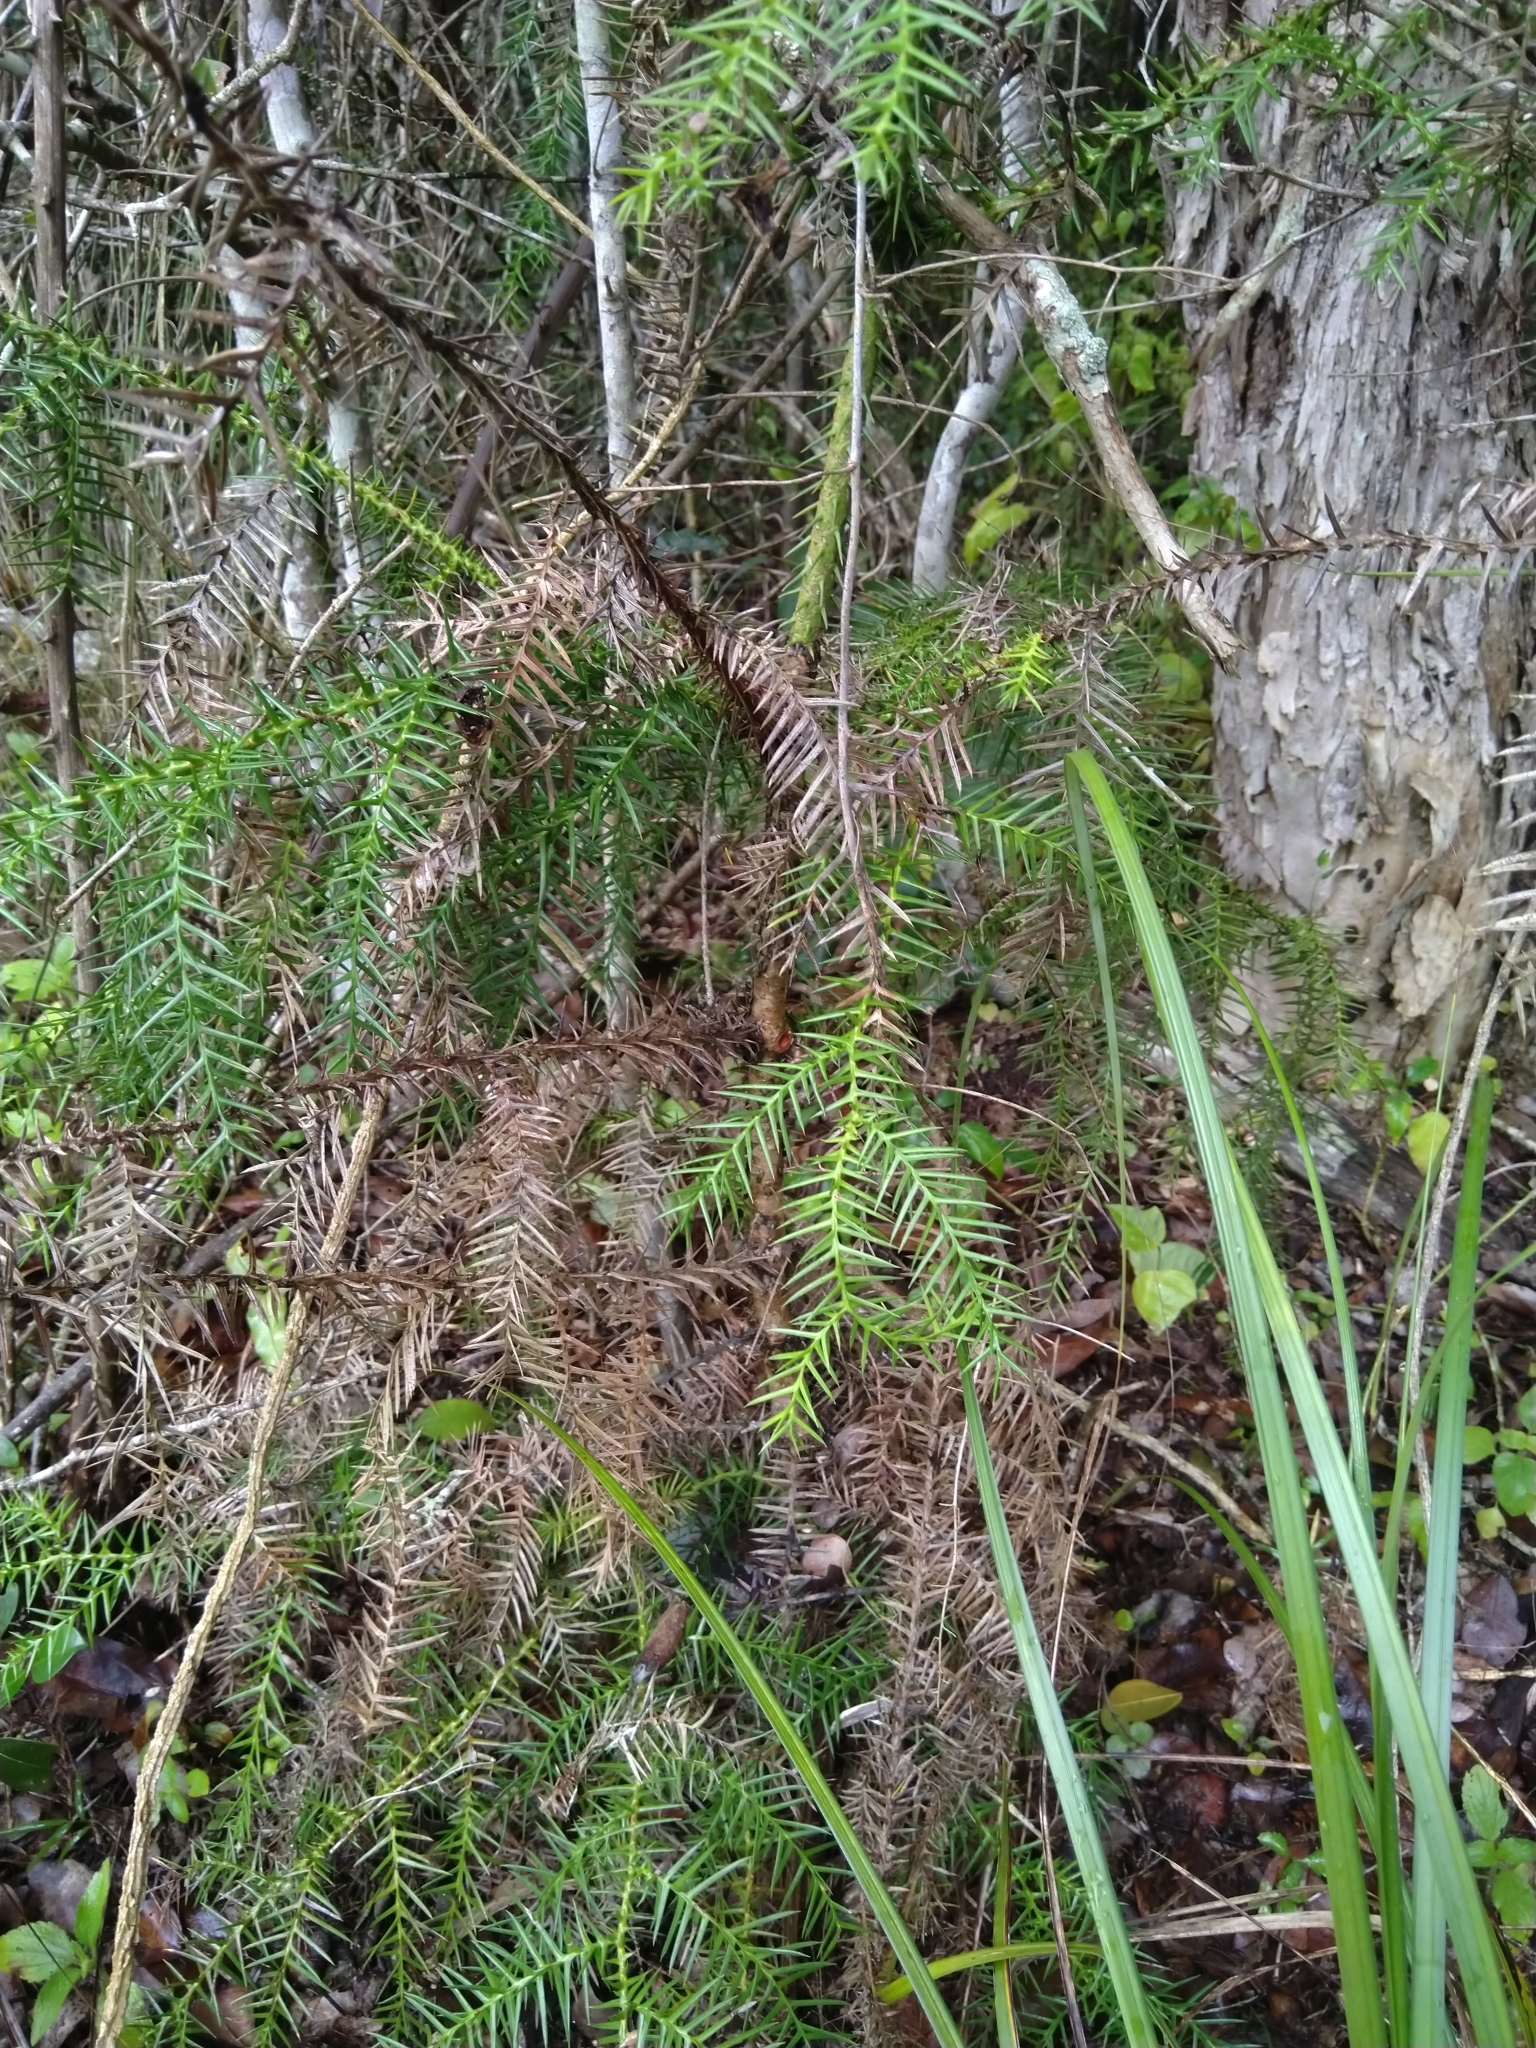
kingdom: Plantae
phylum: Tracheophyta
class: Pinopsida
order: Pinales
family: Araucariaceae
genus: Araucaria
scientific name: Araucaria cunninghamii
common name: Colonial pine
